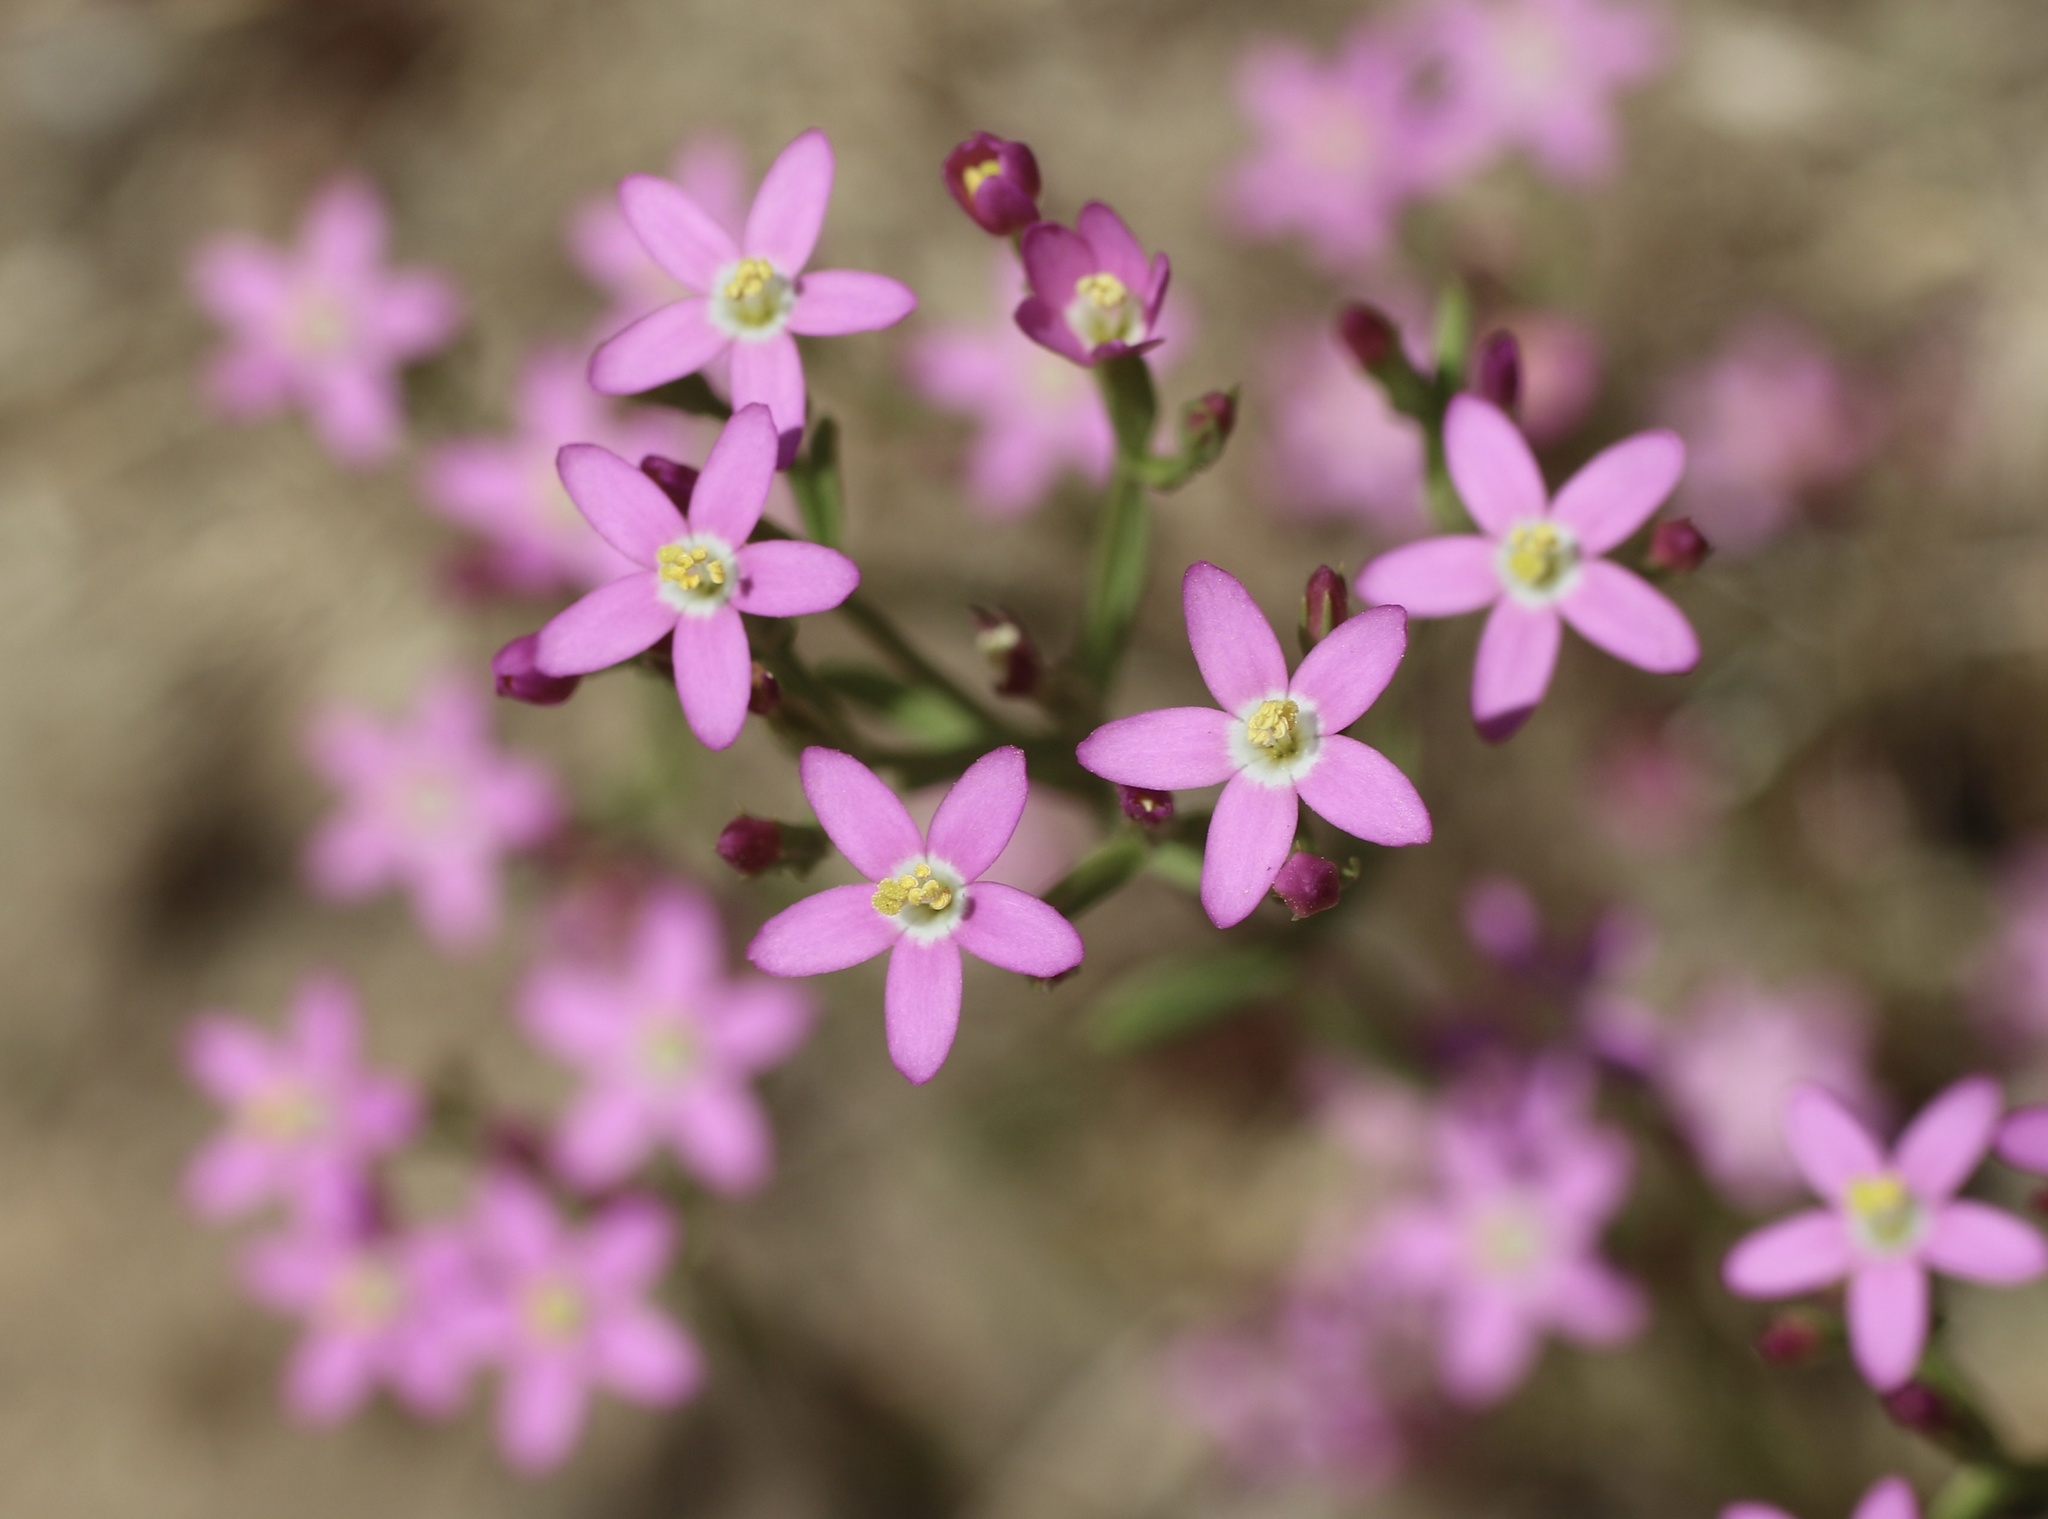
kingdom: Plantae
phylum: Tracheophyta
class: Magnoliopsida
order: Gentianales
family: Gentianaceae
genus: Zeltnera
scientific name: Zeltnera muhlenbergii
